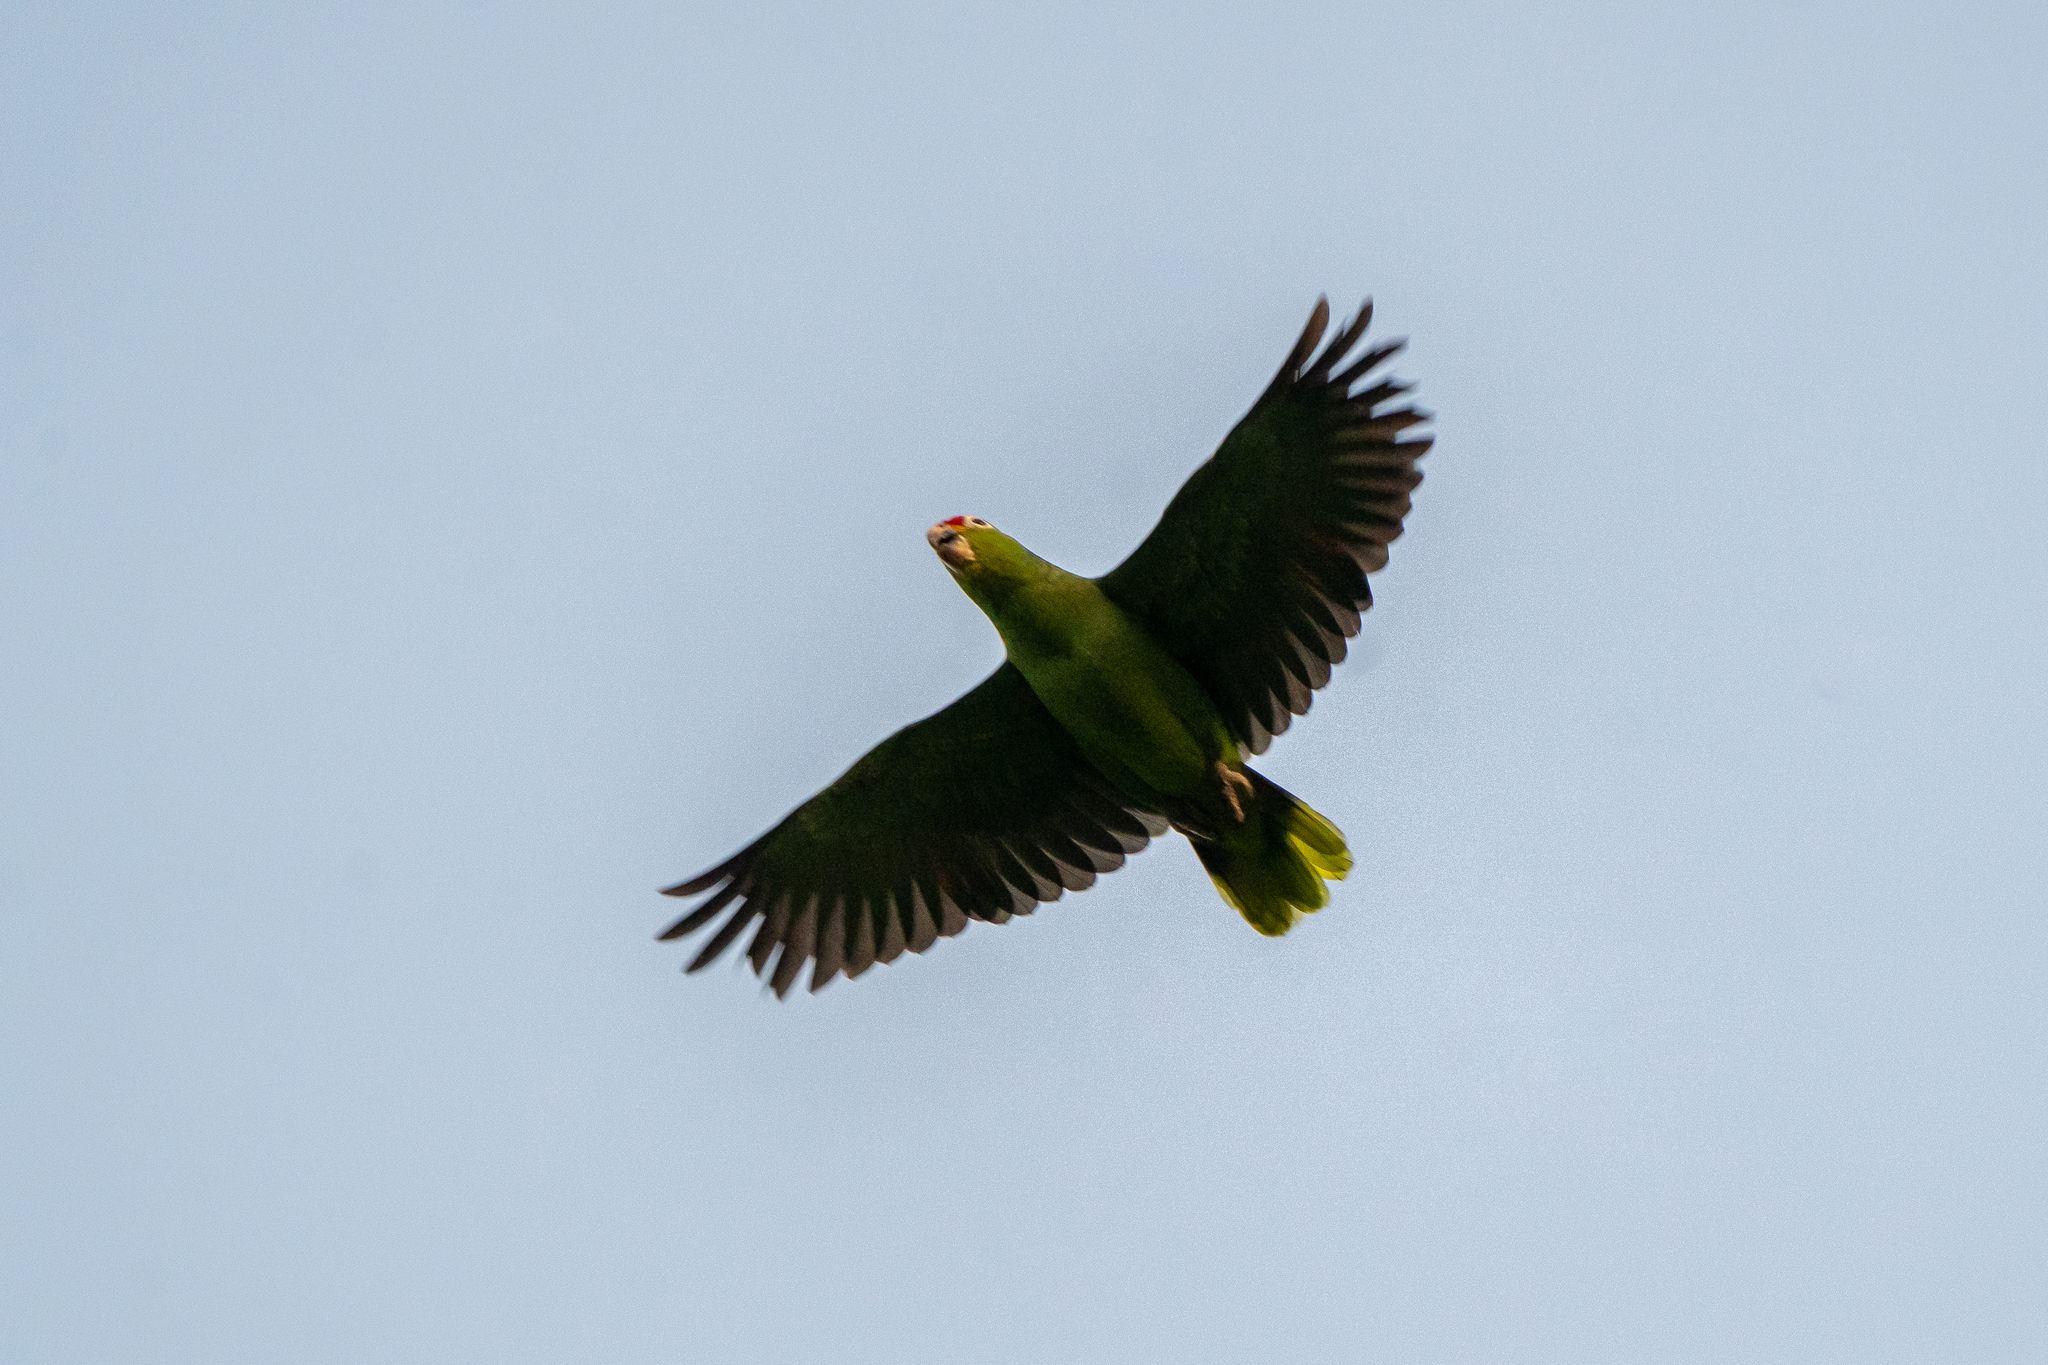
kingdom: Animalia
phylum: Chordata
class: Aves
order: Psittaciformes
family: Psittacidae
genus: Amazona
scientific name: Amazona autumnalis
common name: Red-lored amazon
